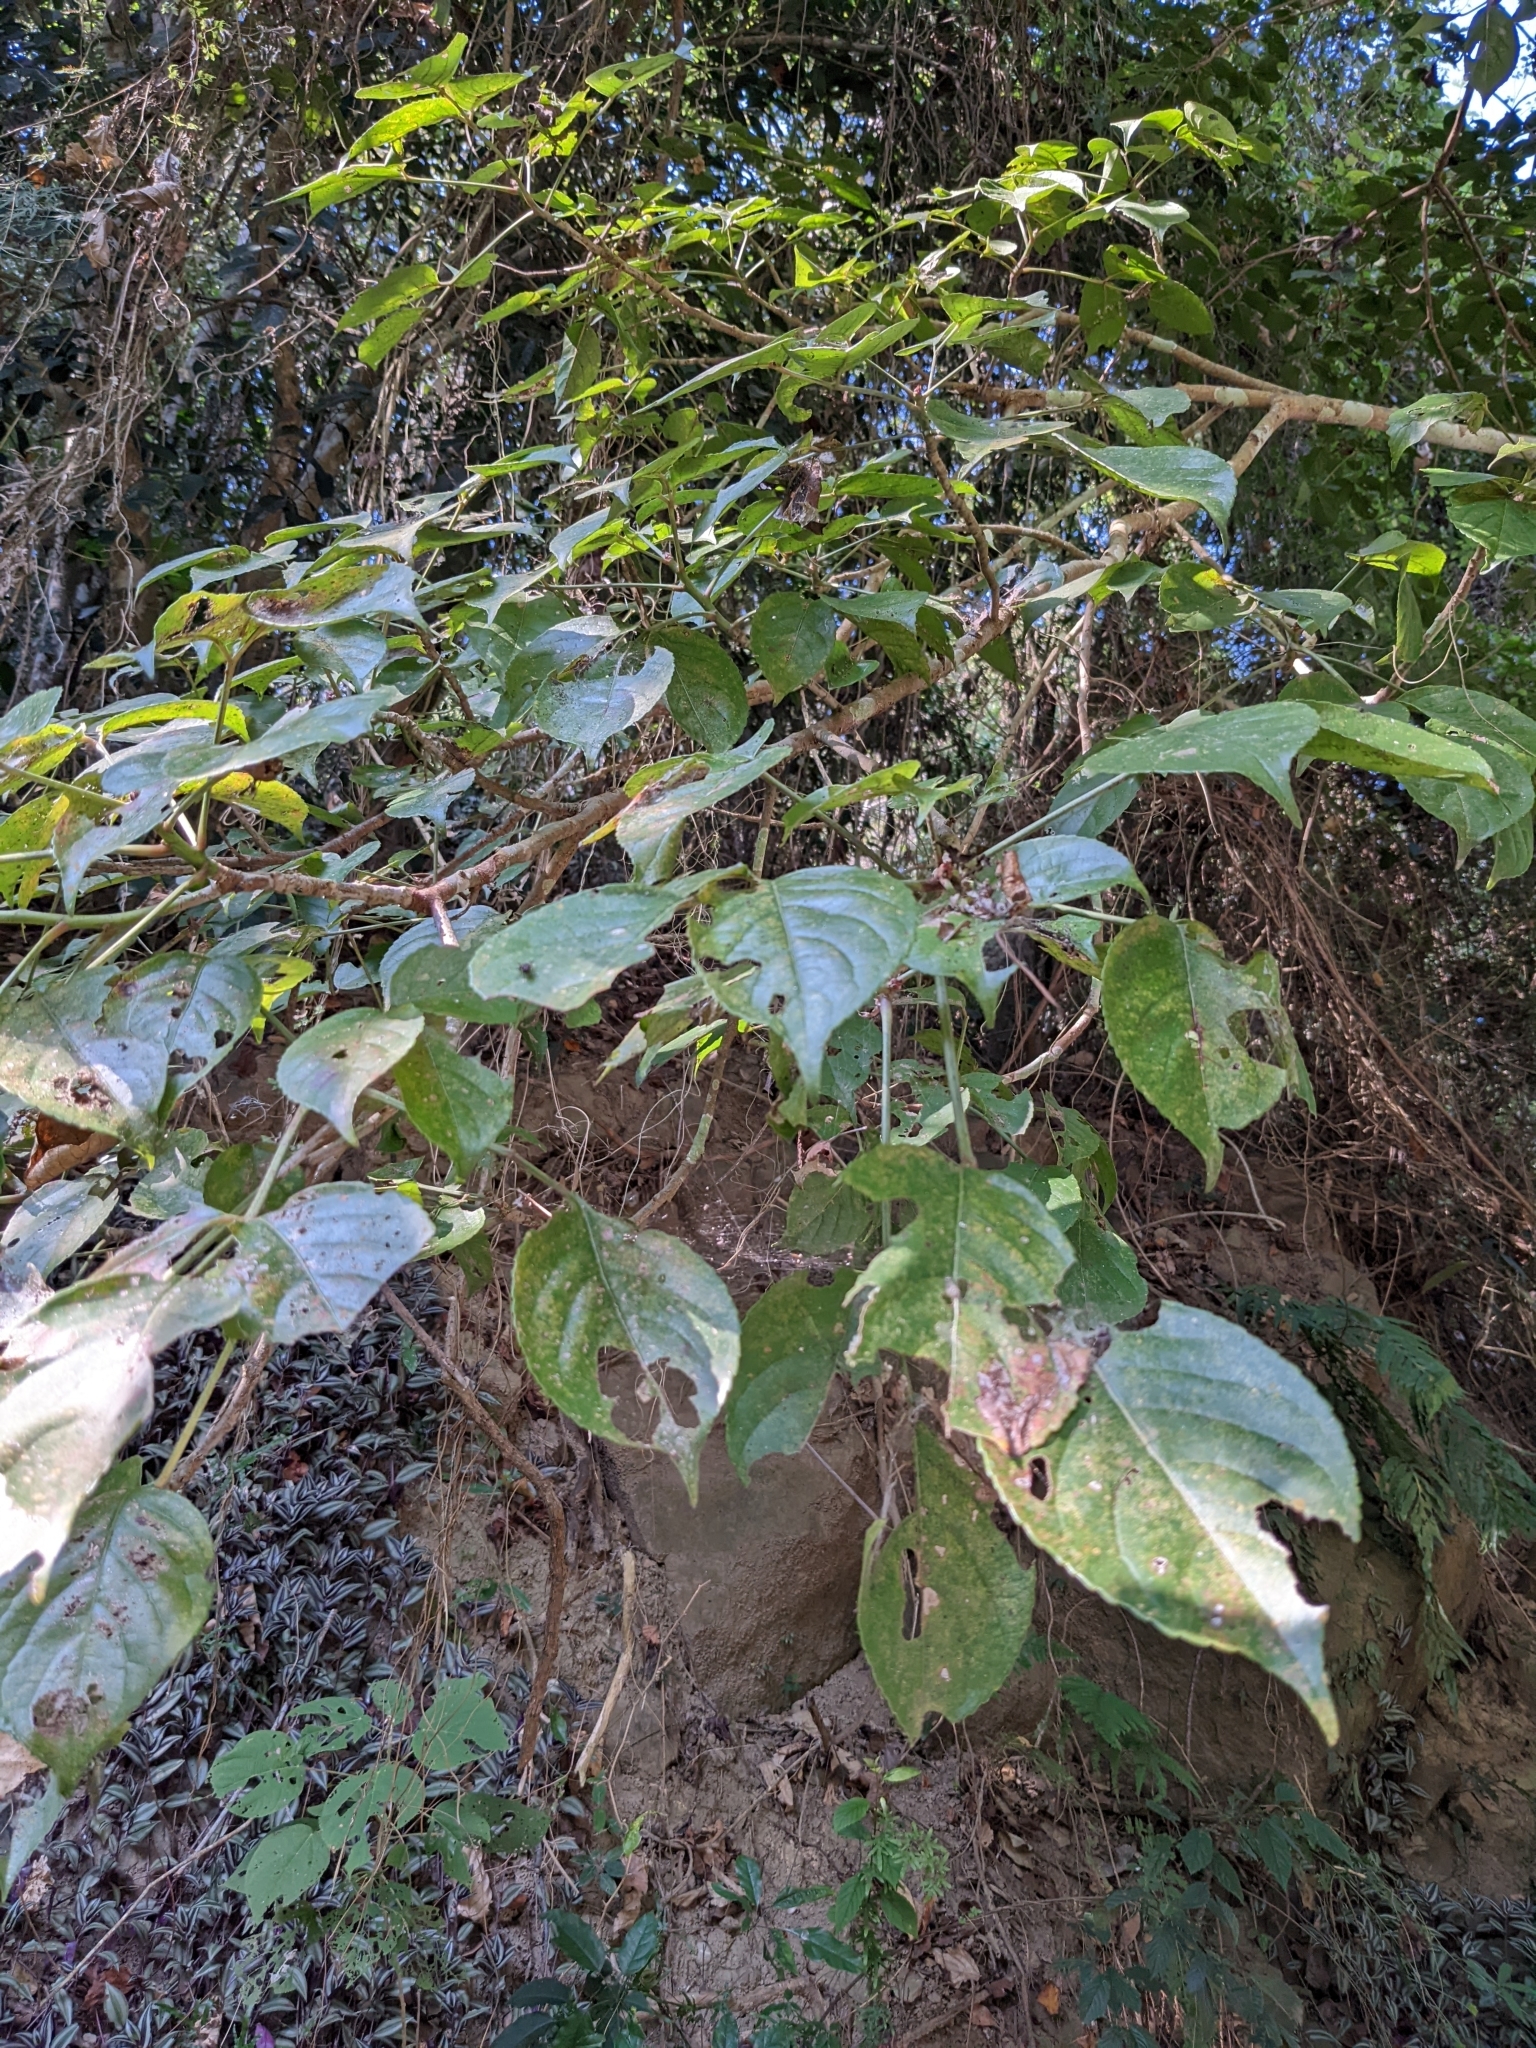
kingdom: Plantae
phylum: Tracheophyta
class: Magnoliopsida
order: Malpighiales
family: Phyllanthaceae
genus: Bischofia
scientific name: Bischofia javanica
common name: Javanese bishopwood
